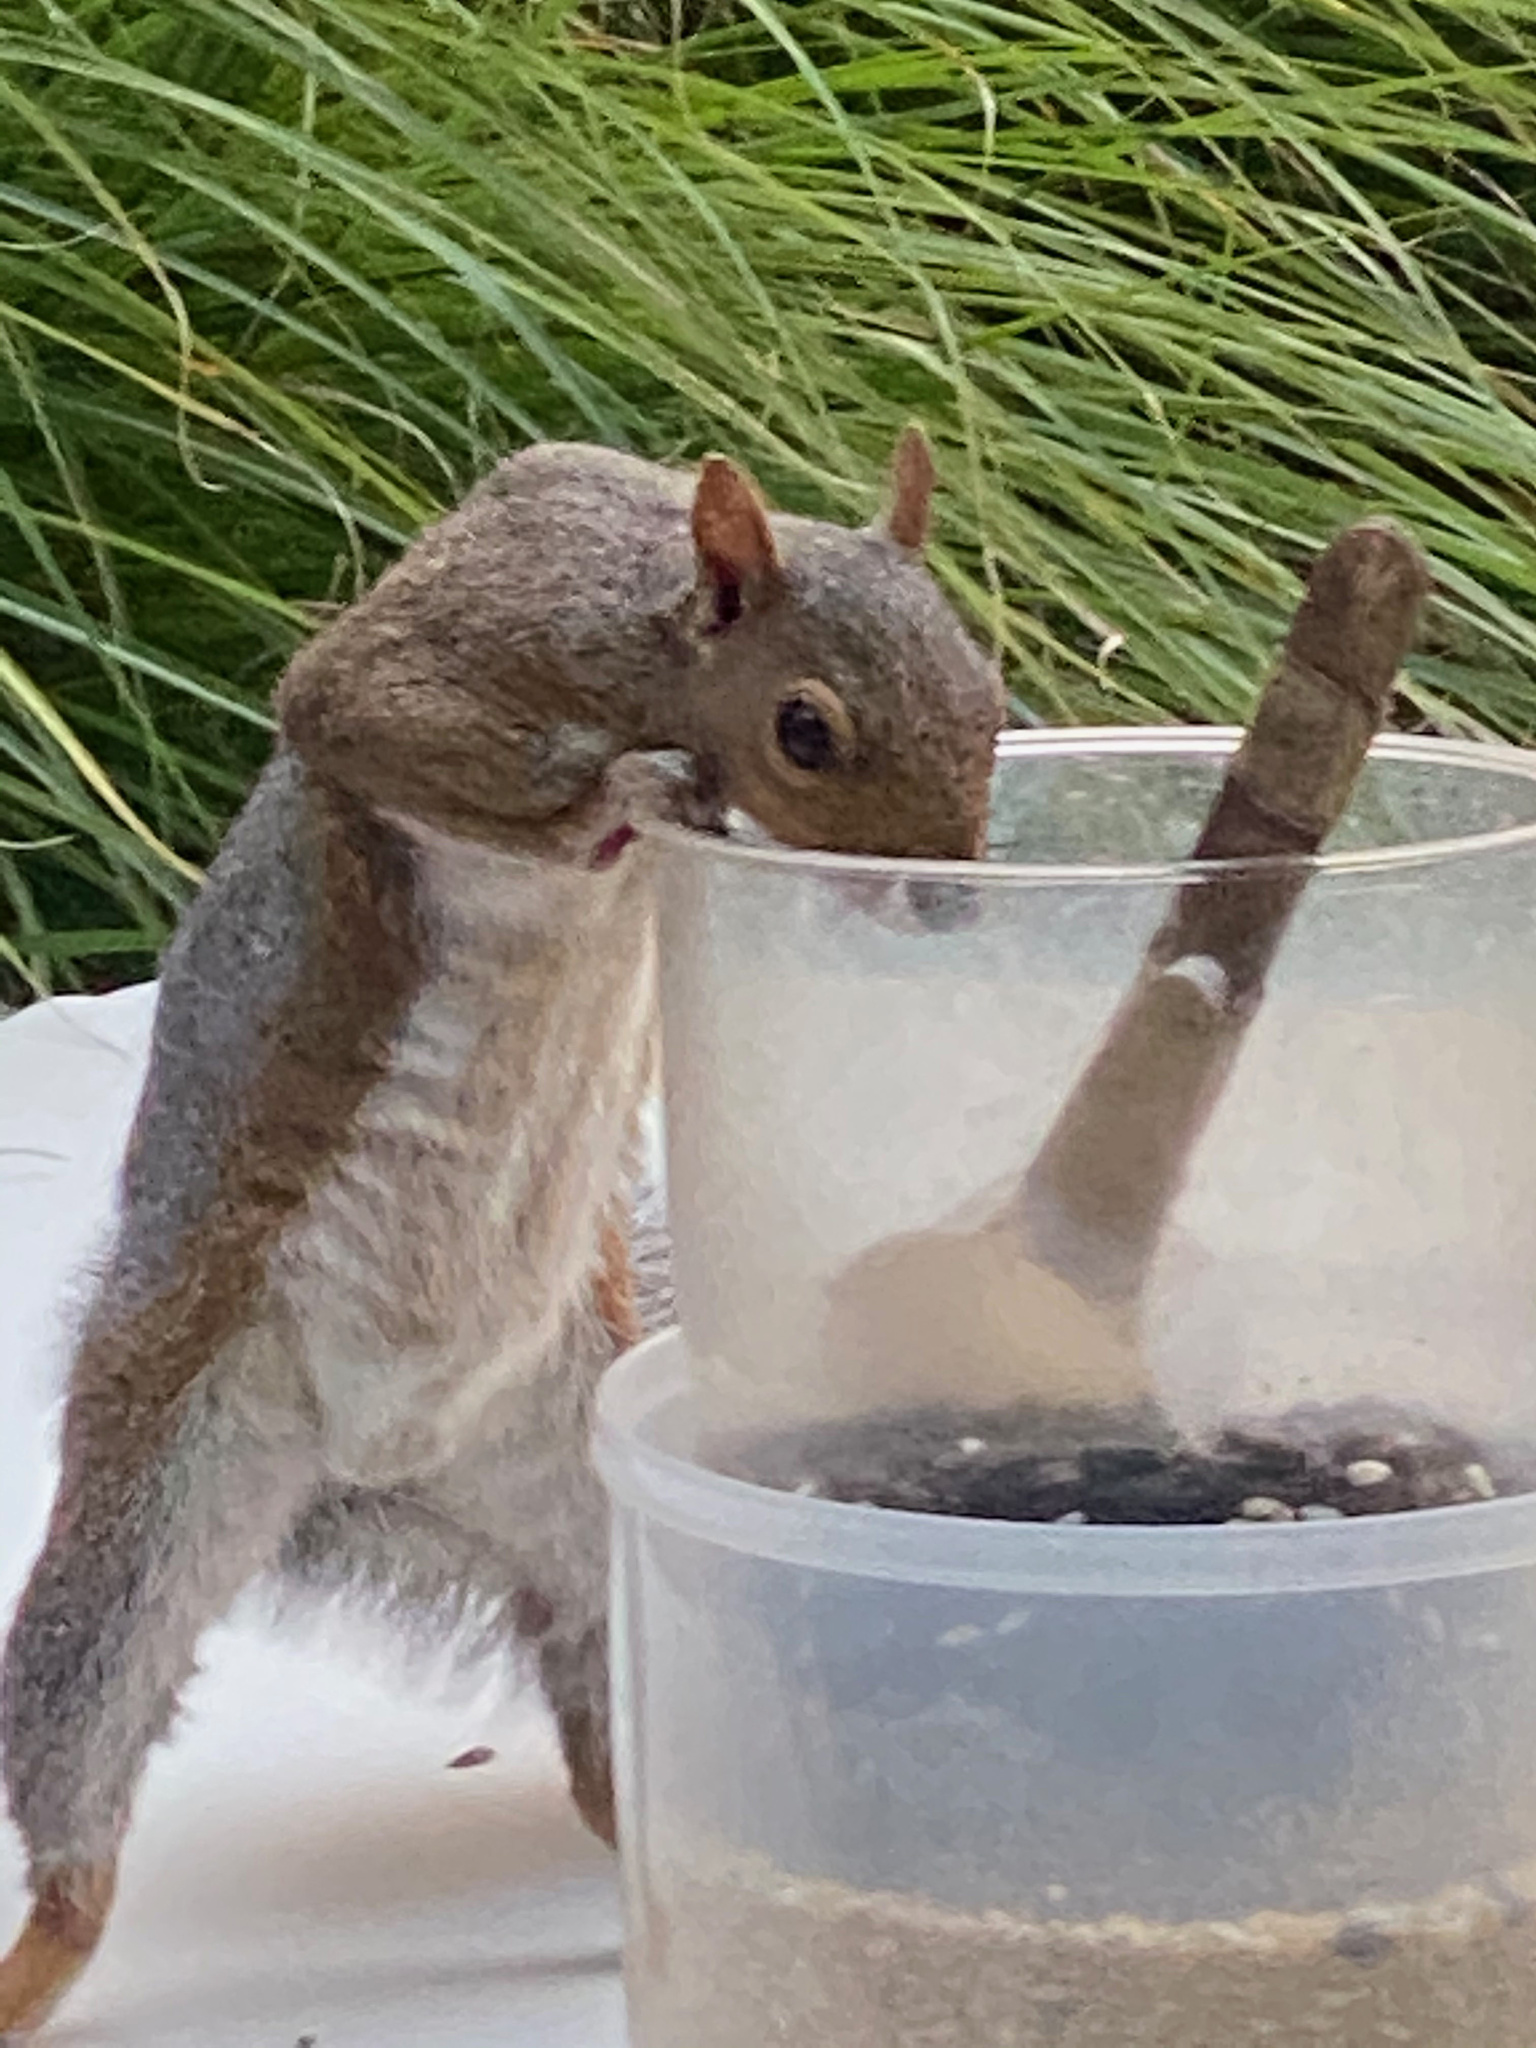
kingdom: Animalia
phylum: Chordata
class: Mammalia
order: Rodentia
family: Sciuridae
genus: Sciurus
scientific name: Sciurus carolinensis
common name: Eastern gray squirrel
